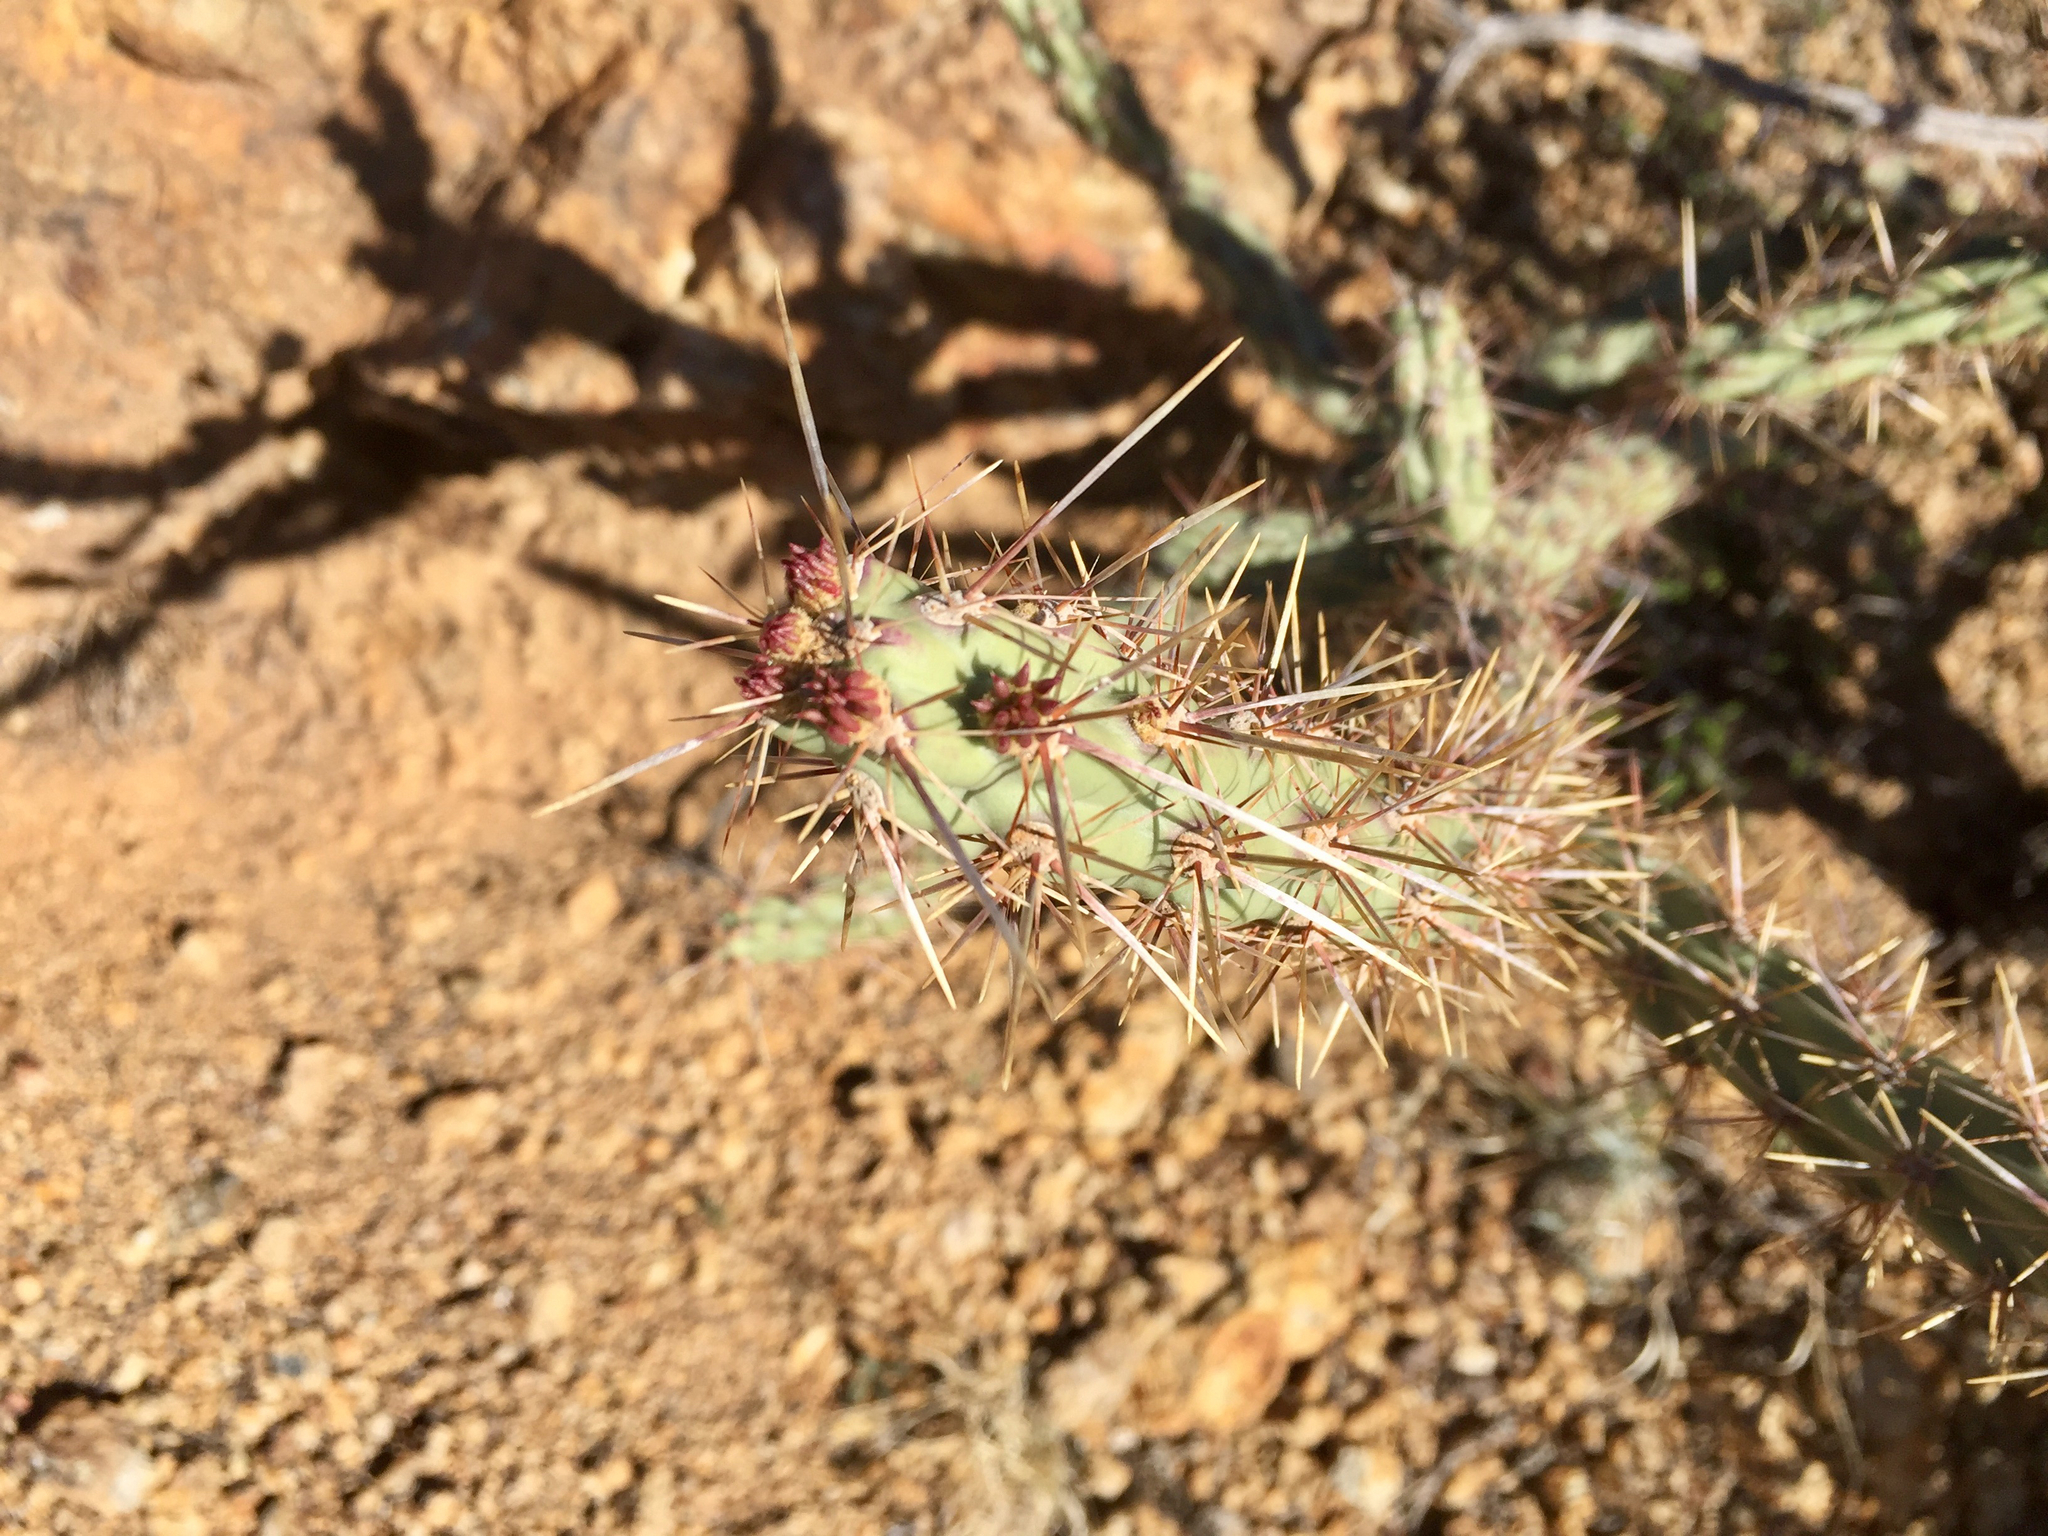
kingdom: Plantae
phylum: Tracheophyta
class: Magnoliopsida
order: Caryophyllales
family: Cactaceae
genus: Cylindropuntia
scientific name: Cylindropuntia acanthocarpa
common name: Buckhorn cholla
